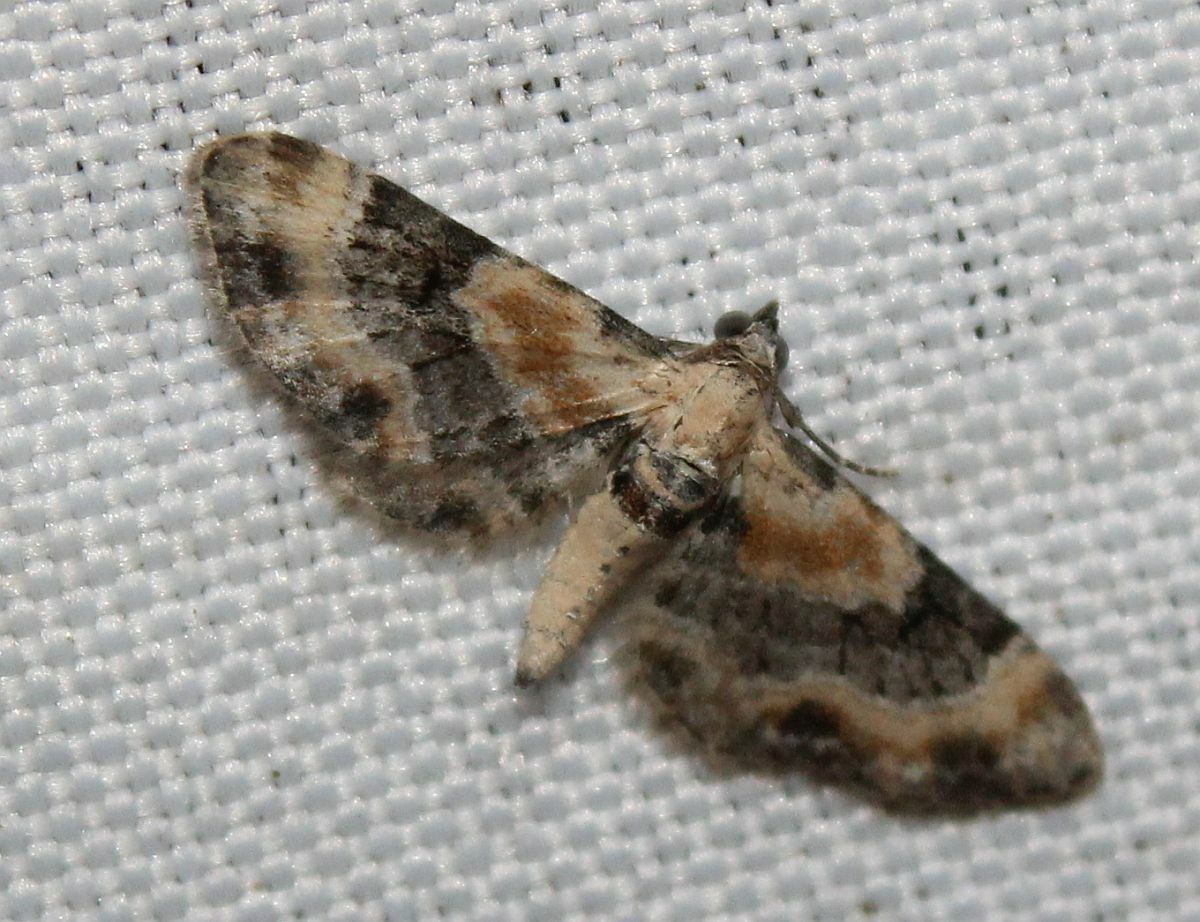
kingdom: Animalia
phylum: Arthropoda
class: Insecta
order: Lepidoptera
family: Geometridae
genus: Eupithecia
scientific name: Eupithecia linariata
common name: Toadflax pug
